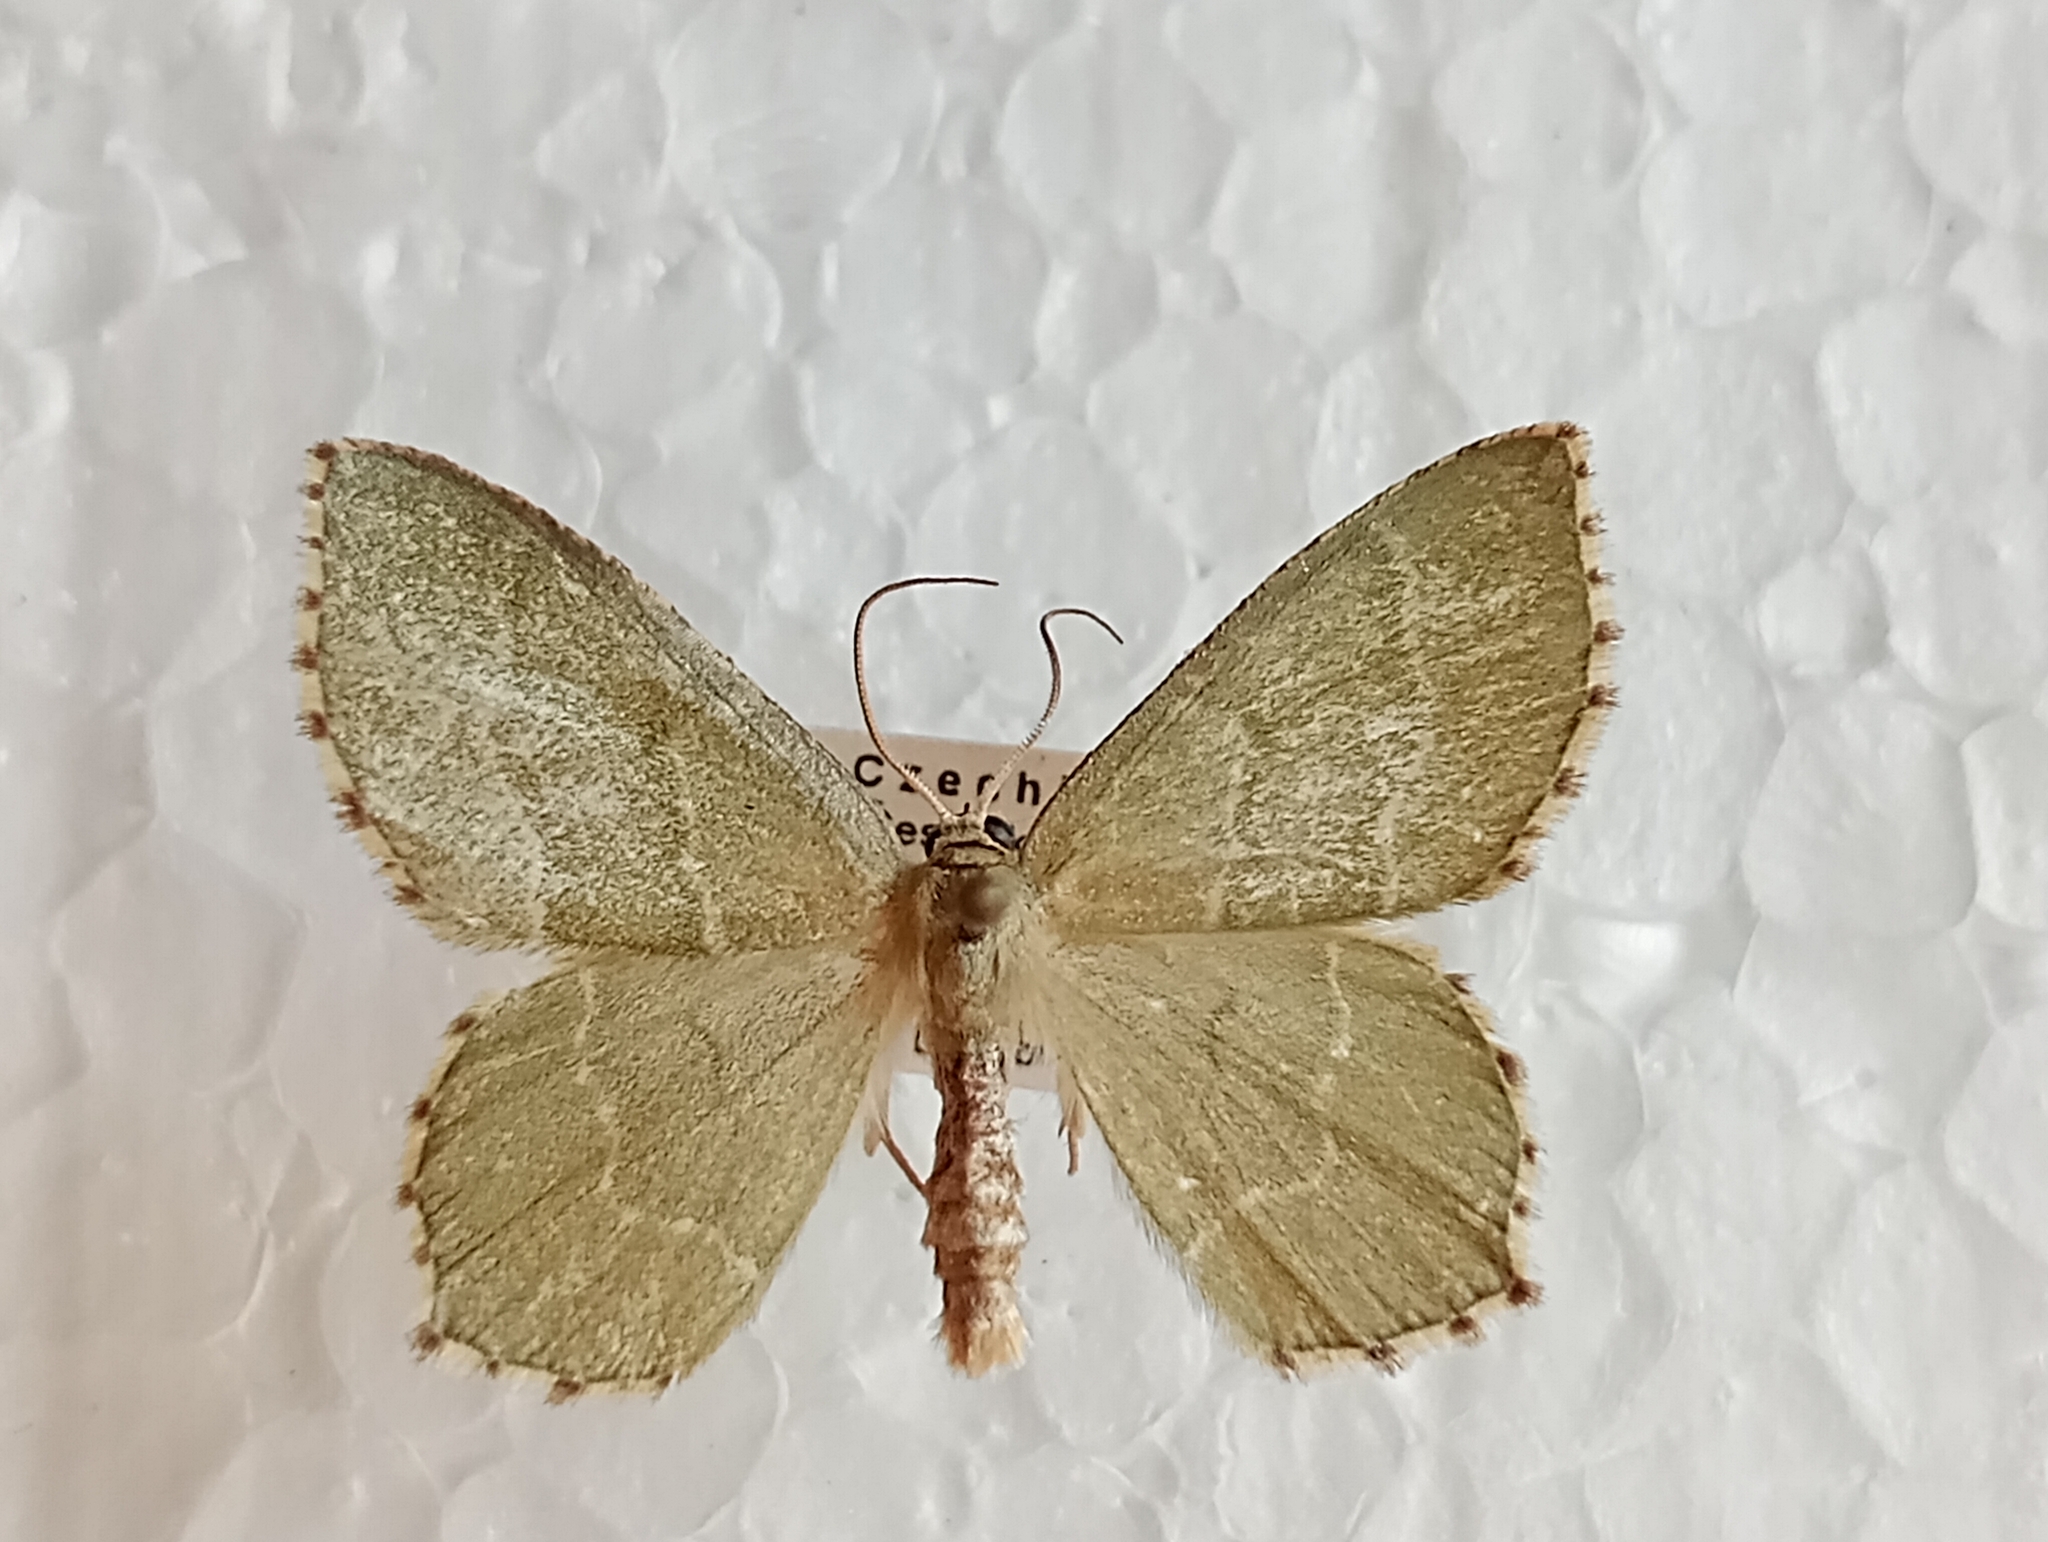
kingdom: Animalia
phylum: Arthropoda
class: Insecta
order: Lepidoptera
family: Geometridae
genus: Hemithea
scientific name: Hemithea aestivaria
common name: Common emerald
